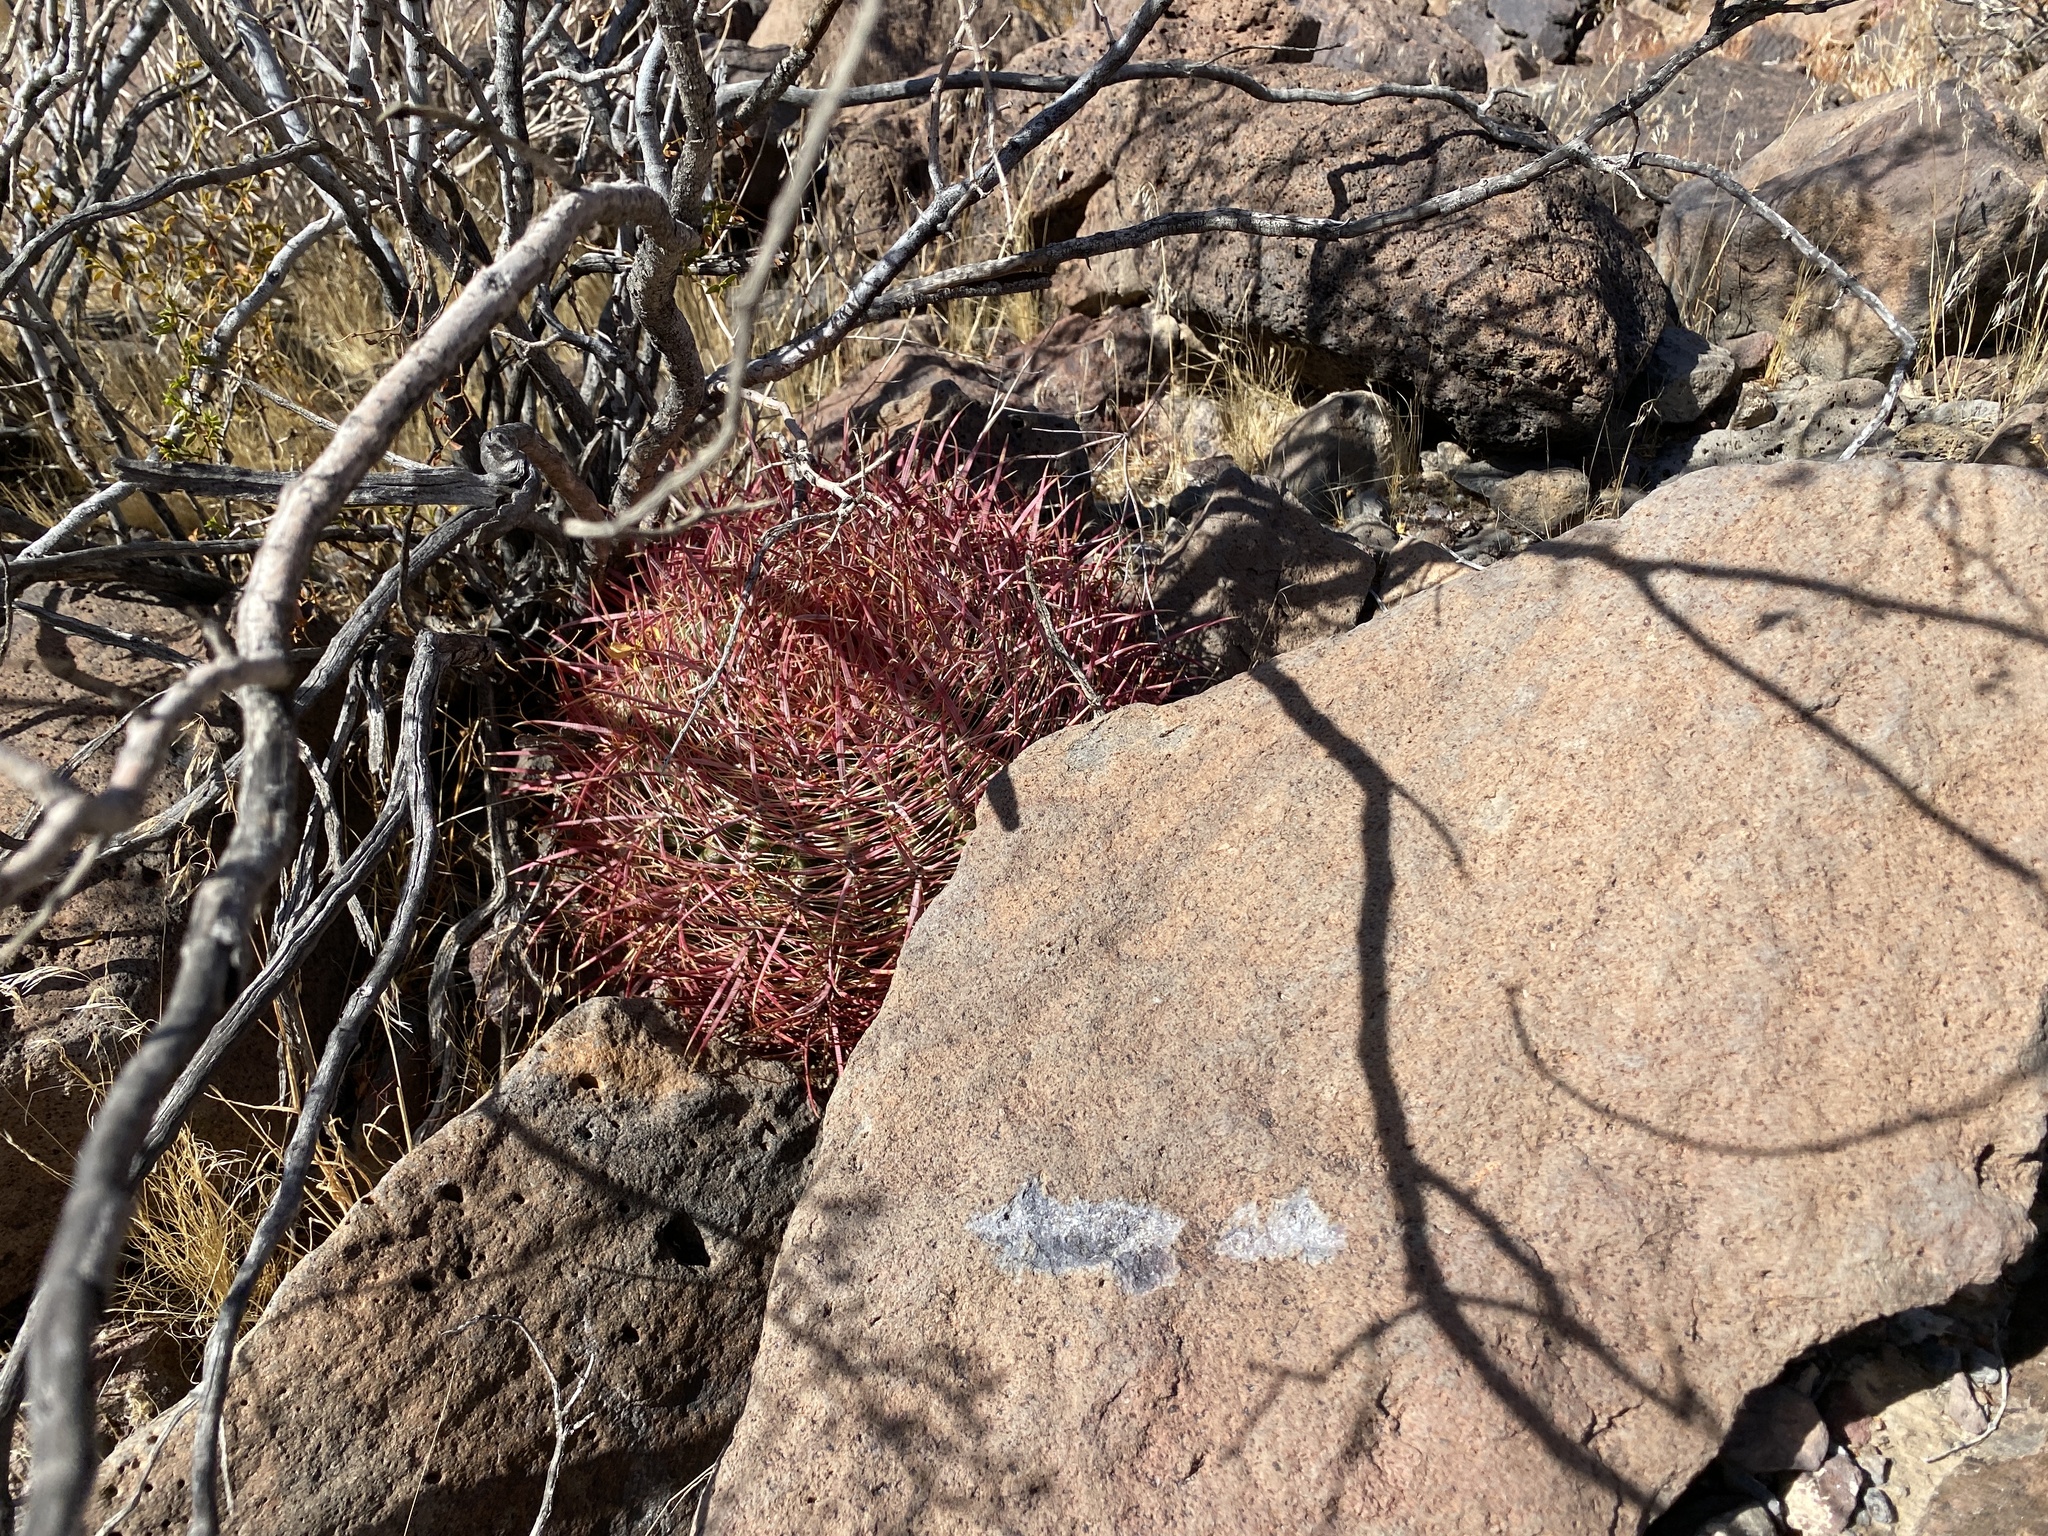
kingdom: Plantae
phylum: Tracheophyta
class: Magnoliopsida
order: Caryophyllales
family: Cactaceae
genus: Ferocactus
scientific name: Ferocactus cylindraceus
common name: California barrel cactus
